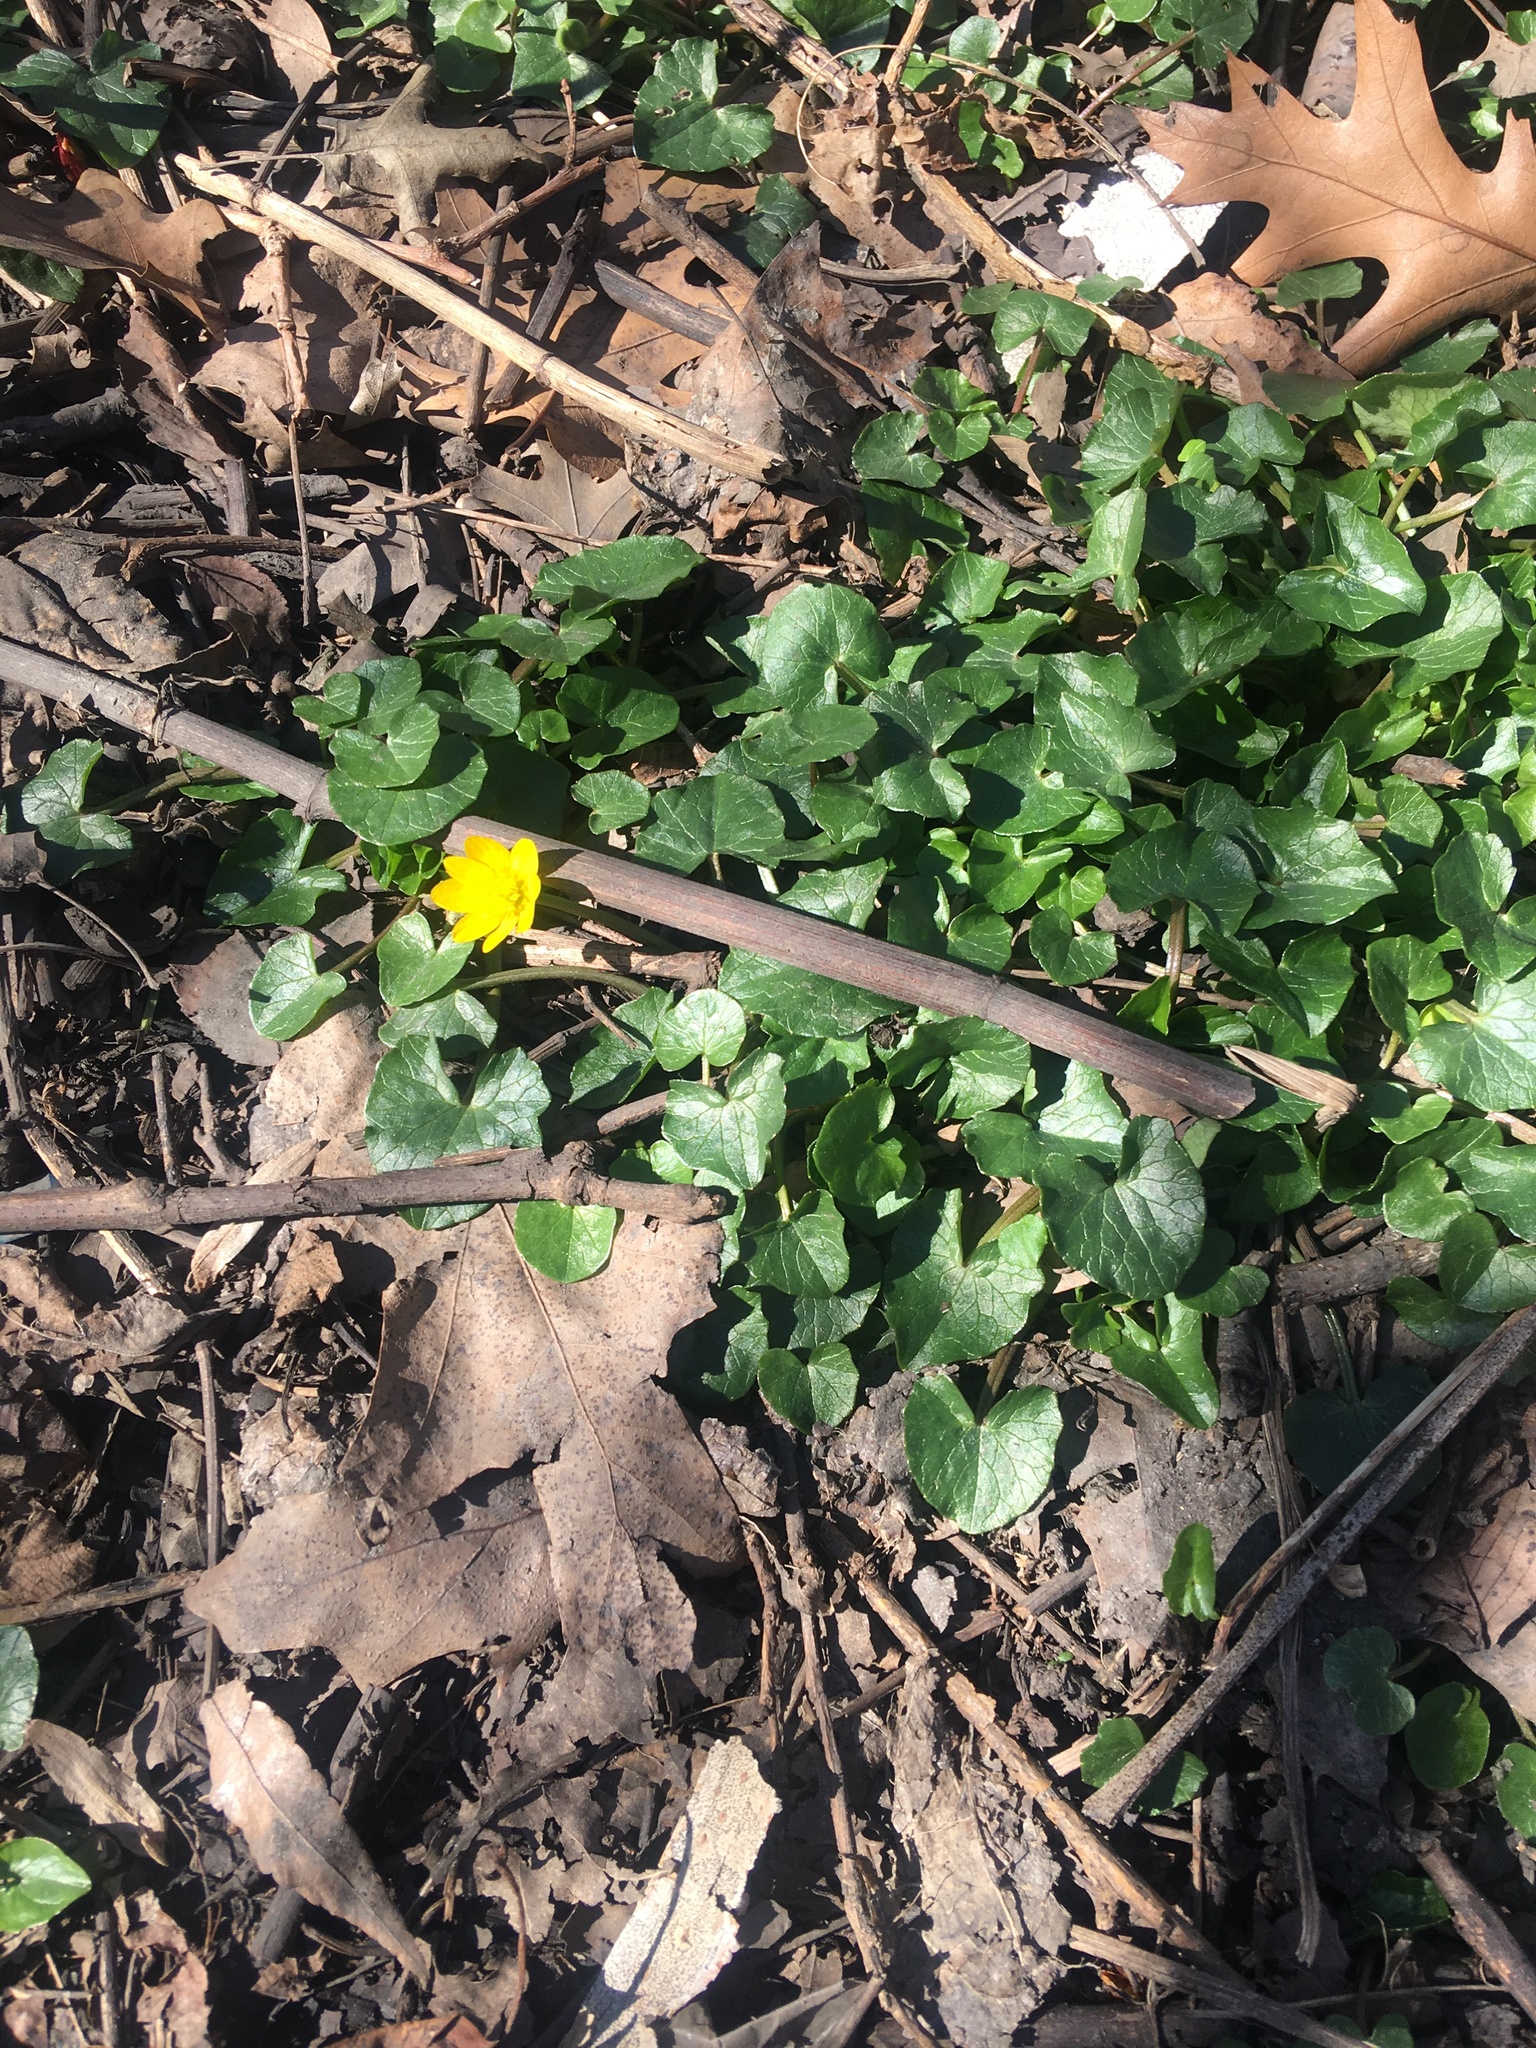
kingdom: Plantae
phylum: Tracheophyta
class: Magnoliopsida
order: Ranunculales
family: Ranunculaceae
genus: Ficaria
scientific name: Ficaria verna
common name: Lesser celandine
